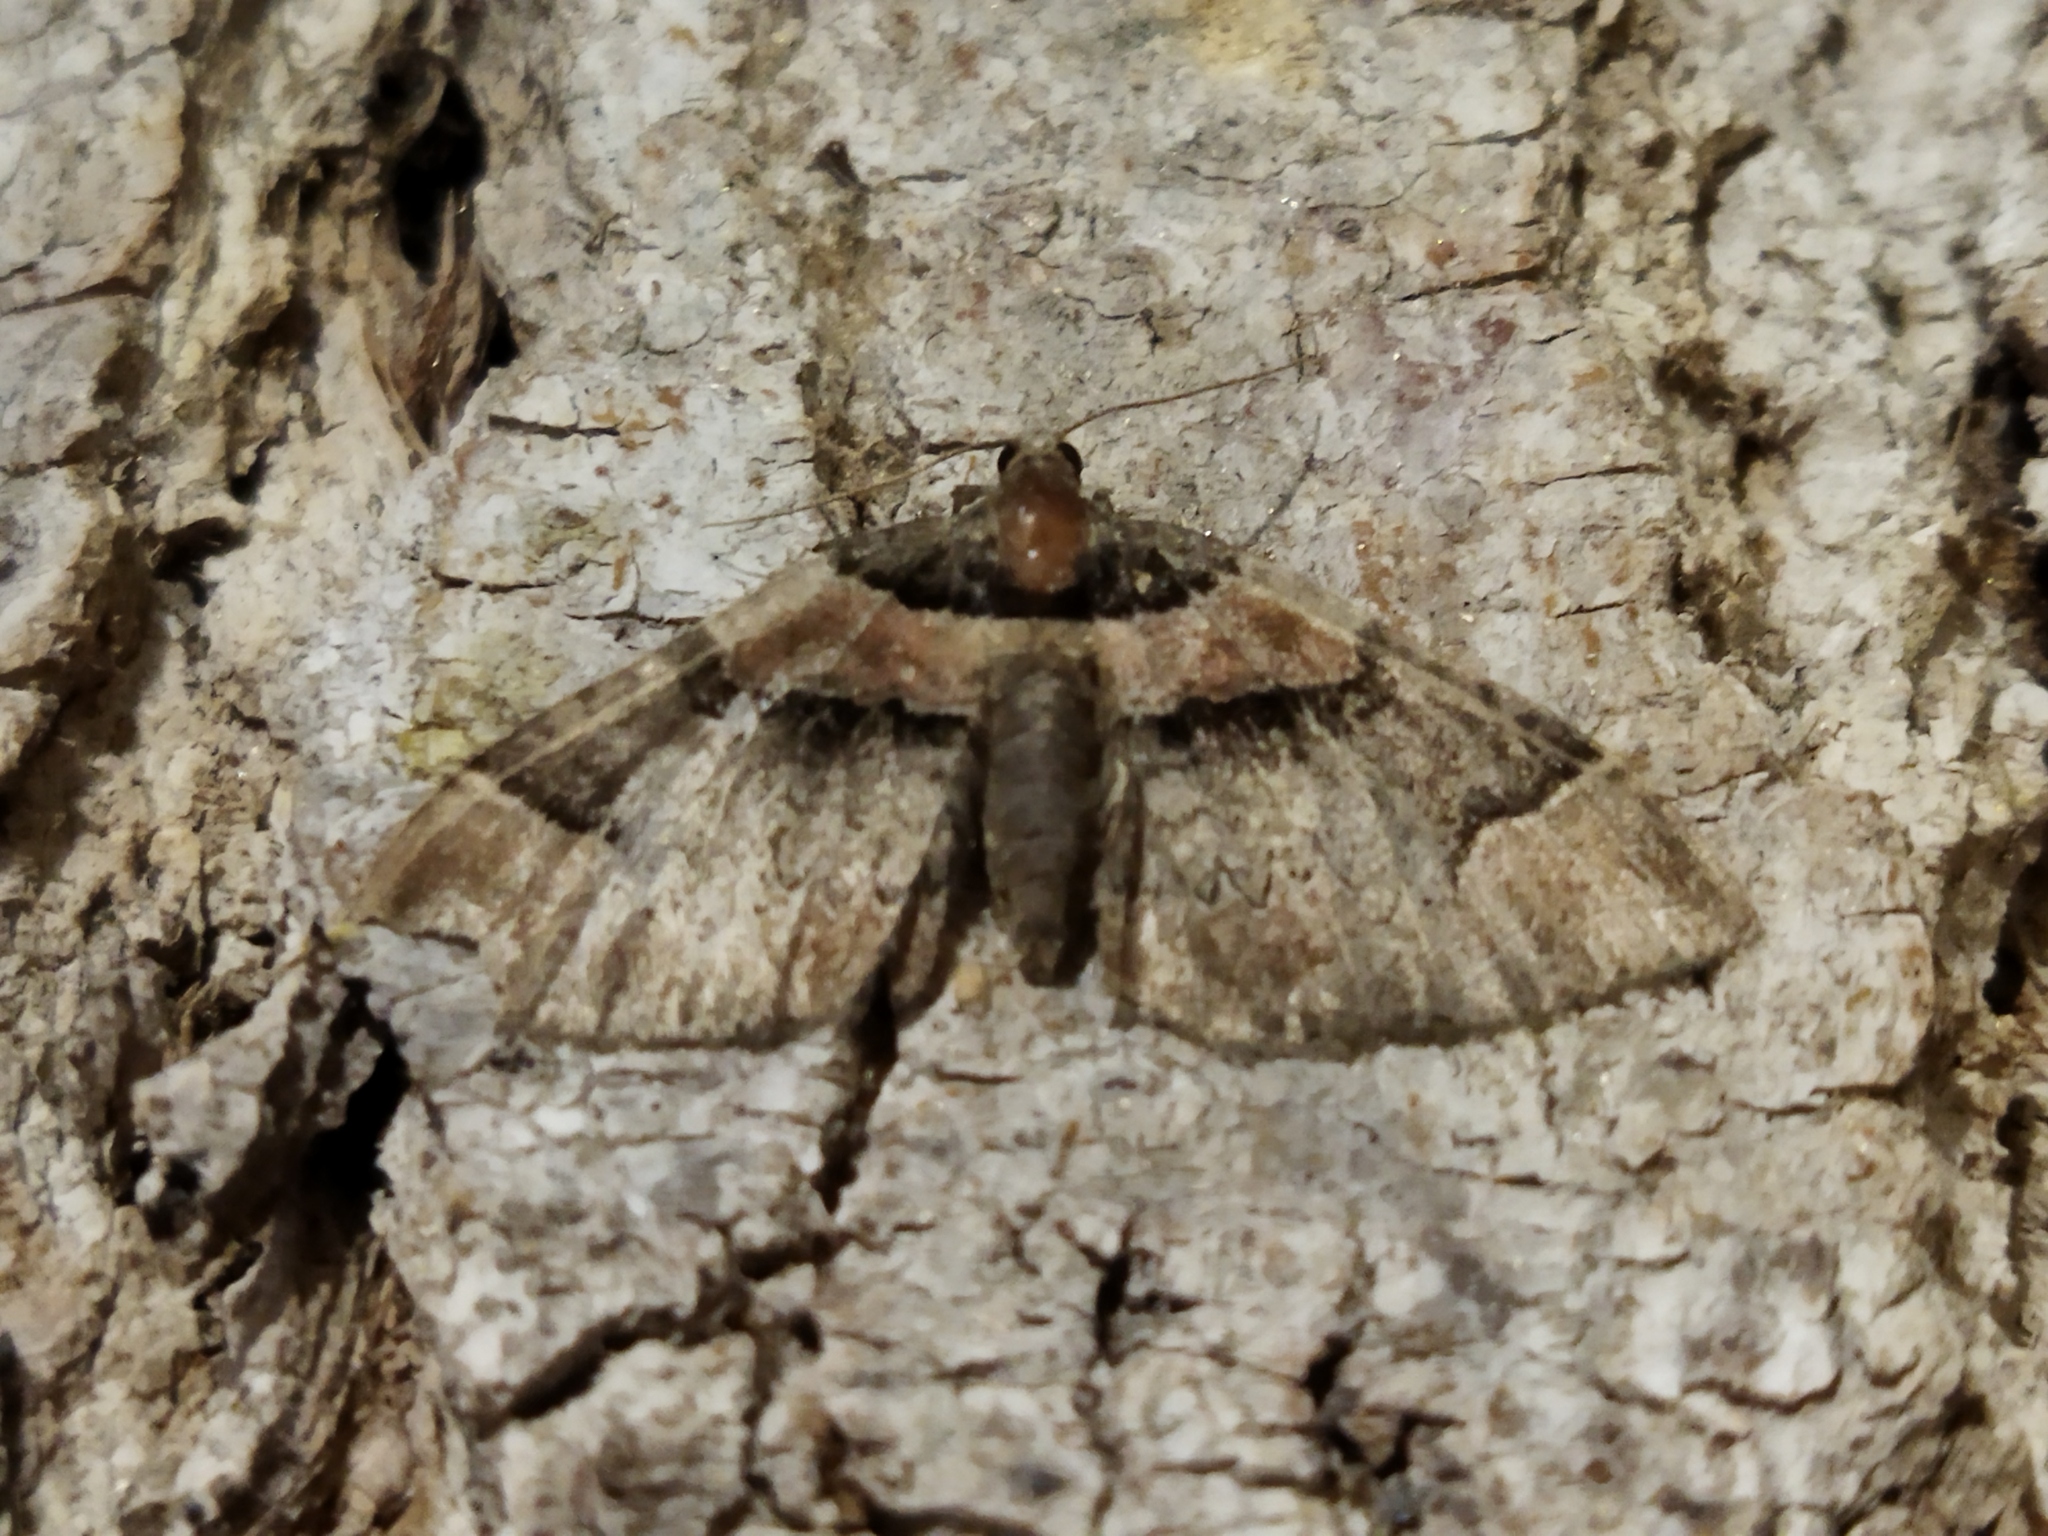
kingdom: Animalia
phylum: Arthropoda
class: Insecta
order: Lepidoptera
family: Geometridae
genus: Catarhoe
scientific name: Catarhoe rubidata
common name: Ruddy carpet
